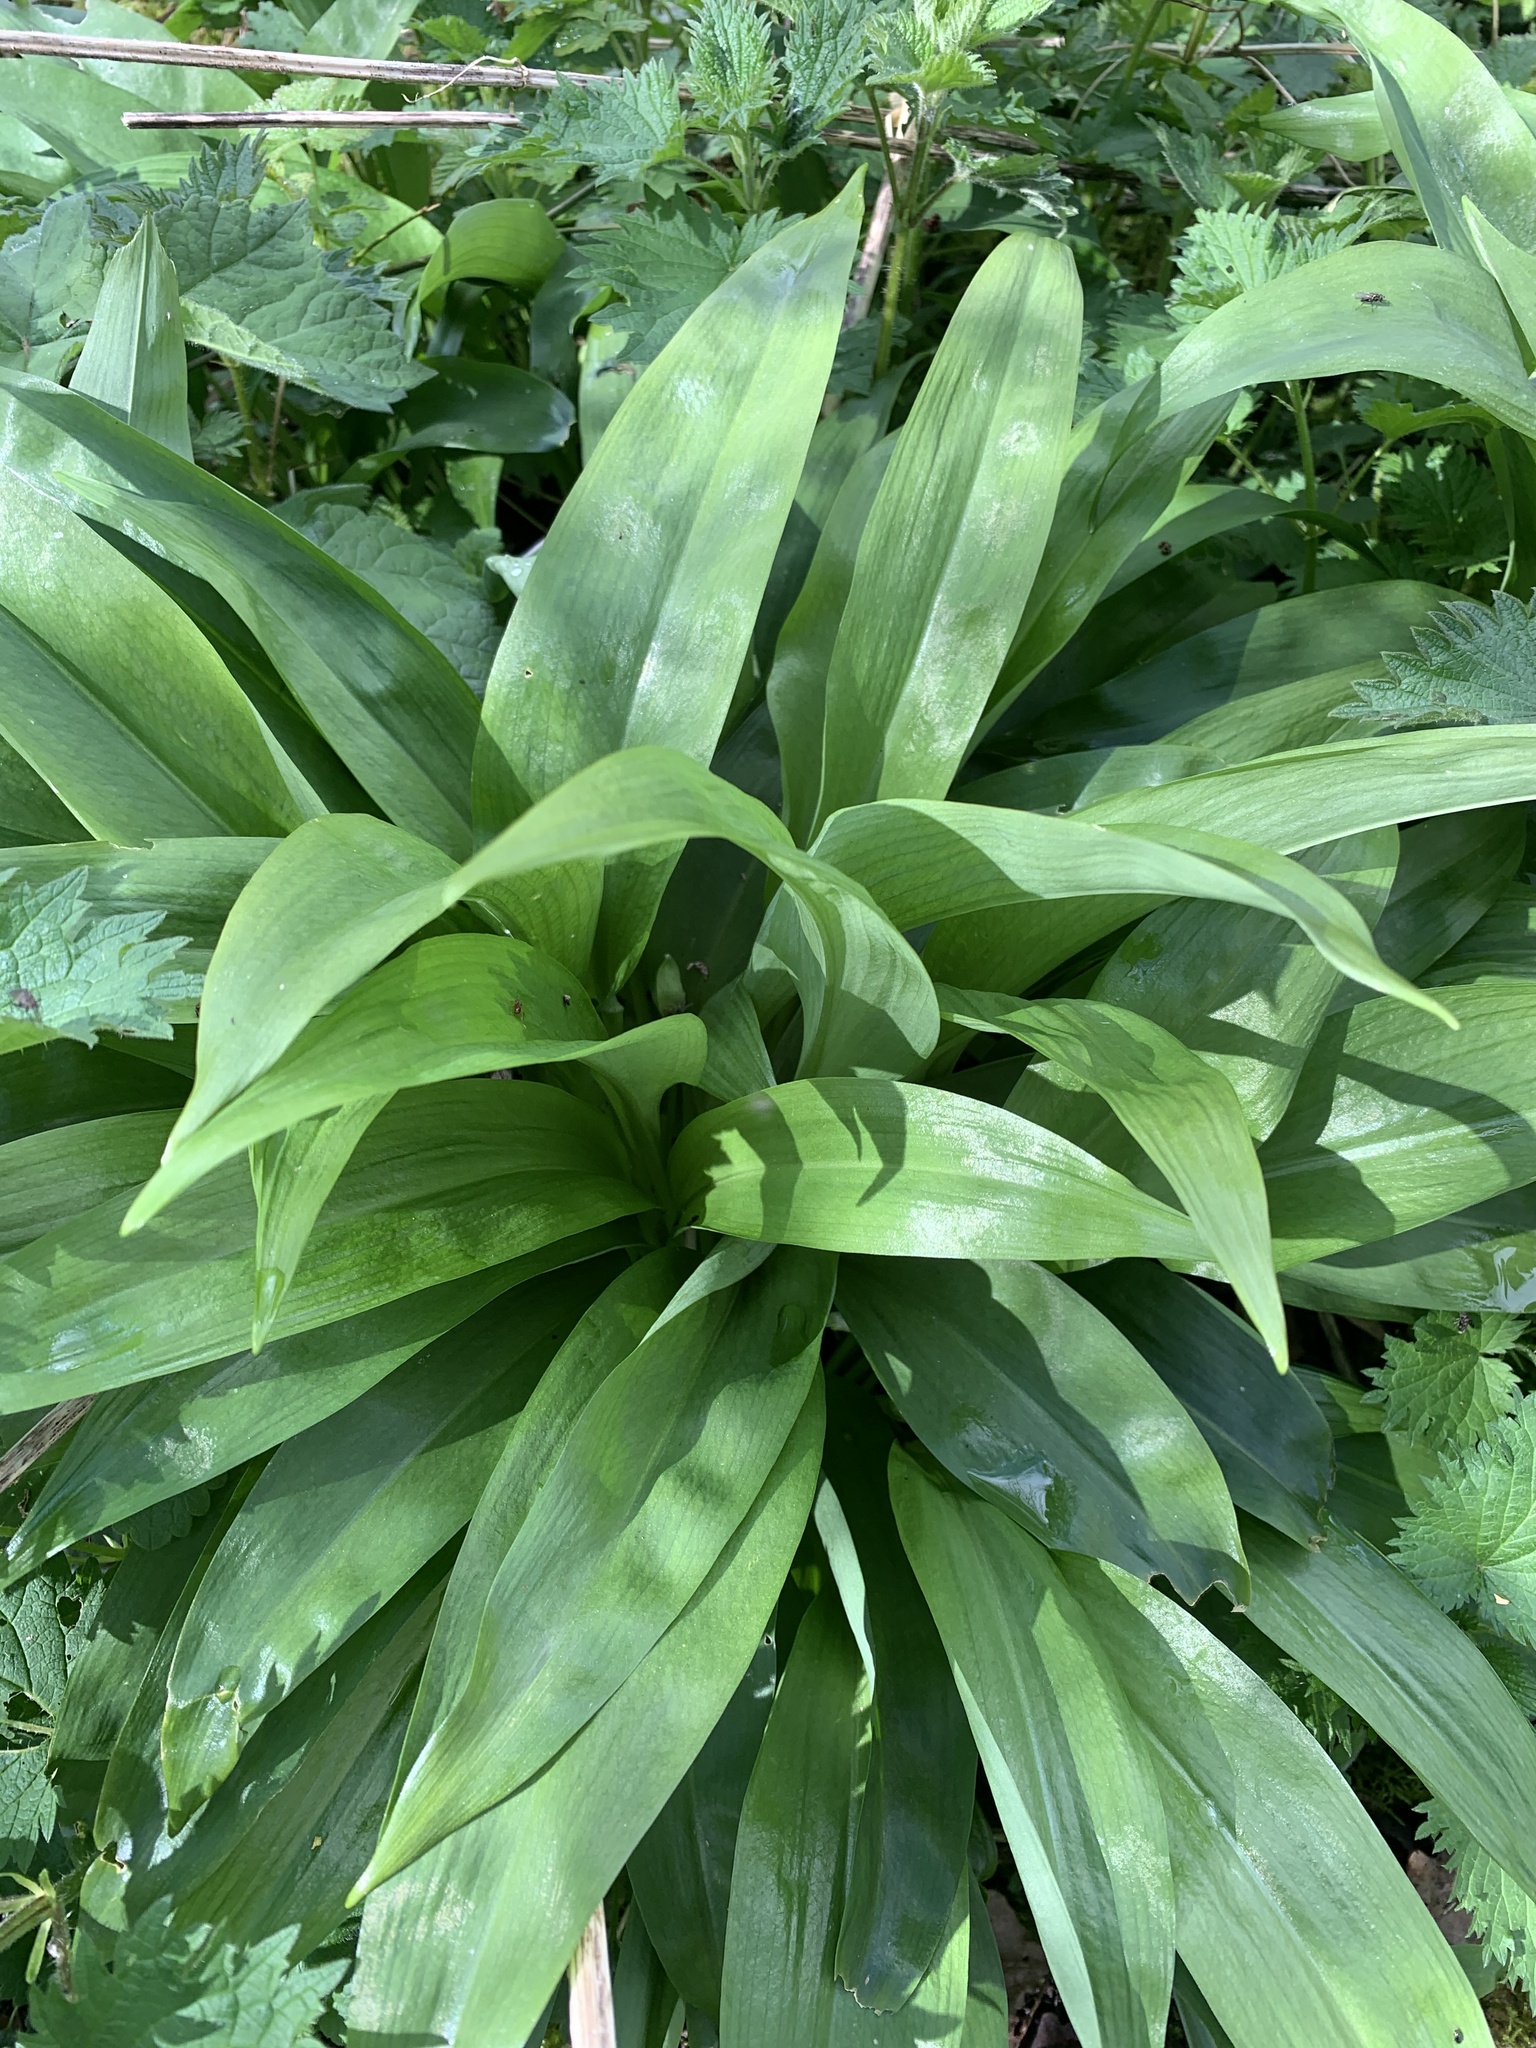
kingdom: Plantae
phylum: Tracheophyta
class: Liliopsida
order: Asparagales
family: Amaryllidaceae
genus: Allium
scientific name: Allium ursinum
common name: Ramsons
